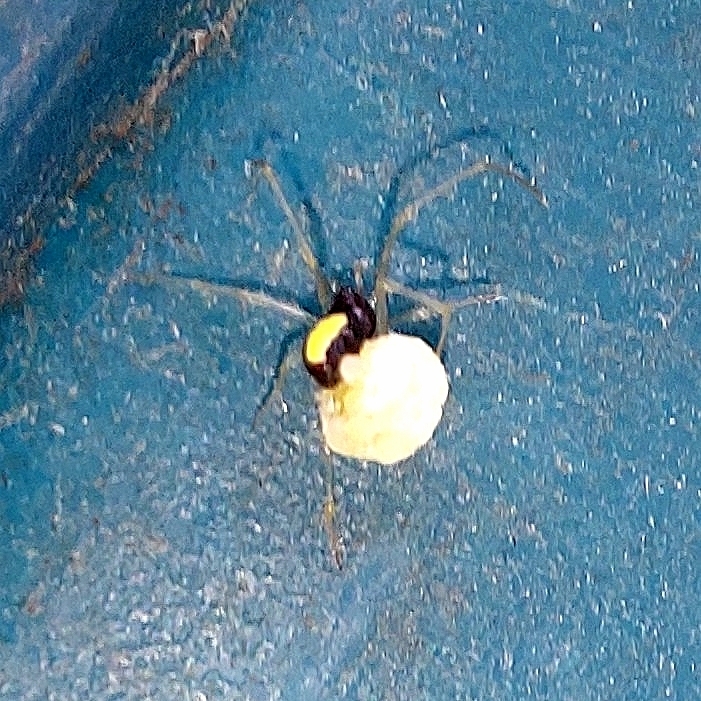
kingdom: Animalia
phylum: Arthropoda
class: Arachnida
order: Araneae
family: Theridiidae
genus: Neottiura
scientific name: Neottiura bimaculata
